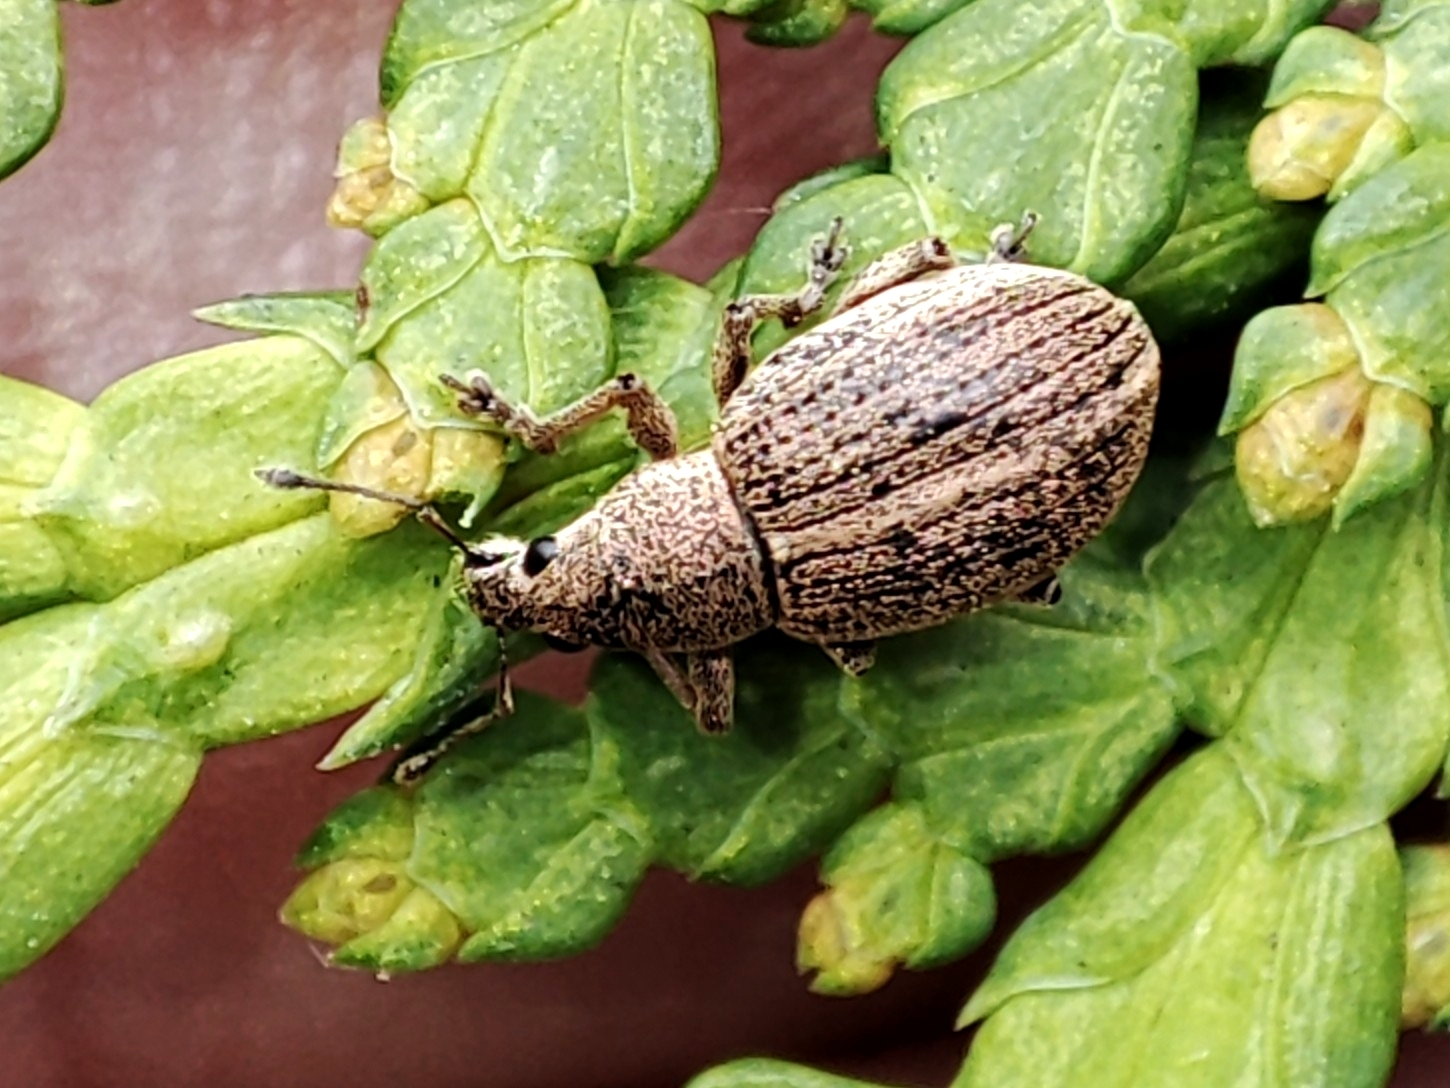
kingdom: Animalia
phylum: Arthropoda
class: Insecta
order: Coleoptera
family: Curculionidae
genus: Sciaphobus
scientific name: Sciaphobus squalidus
